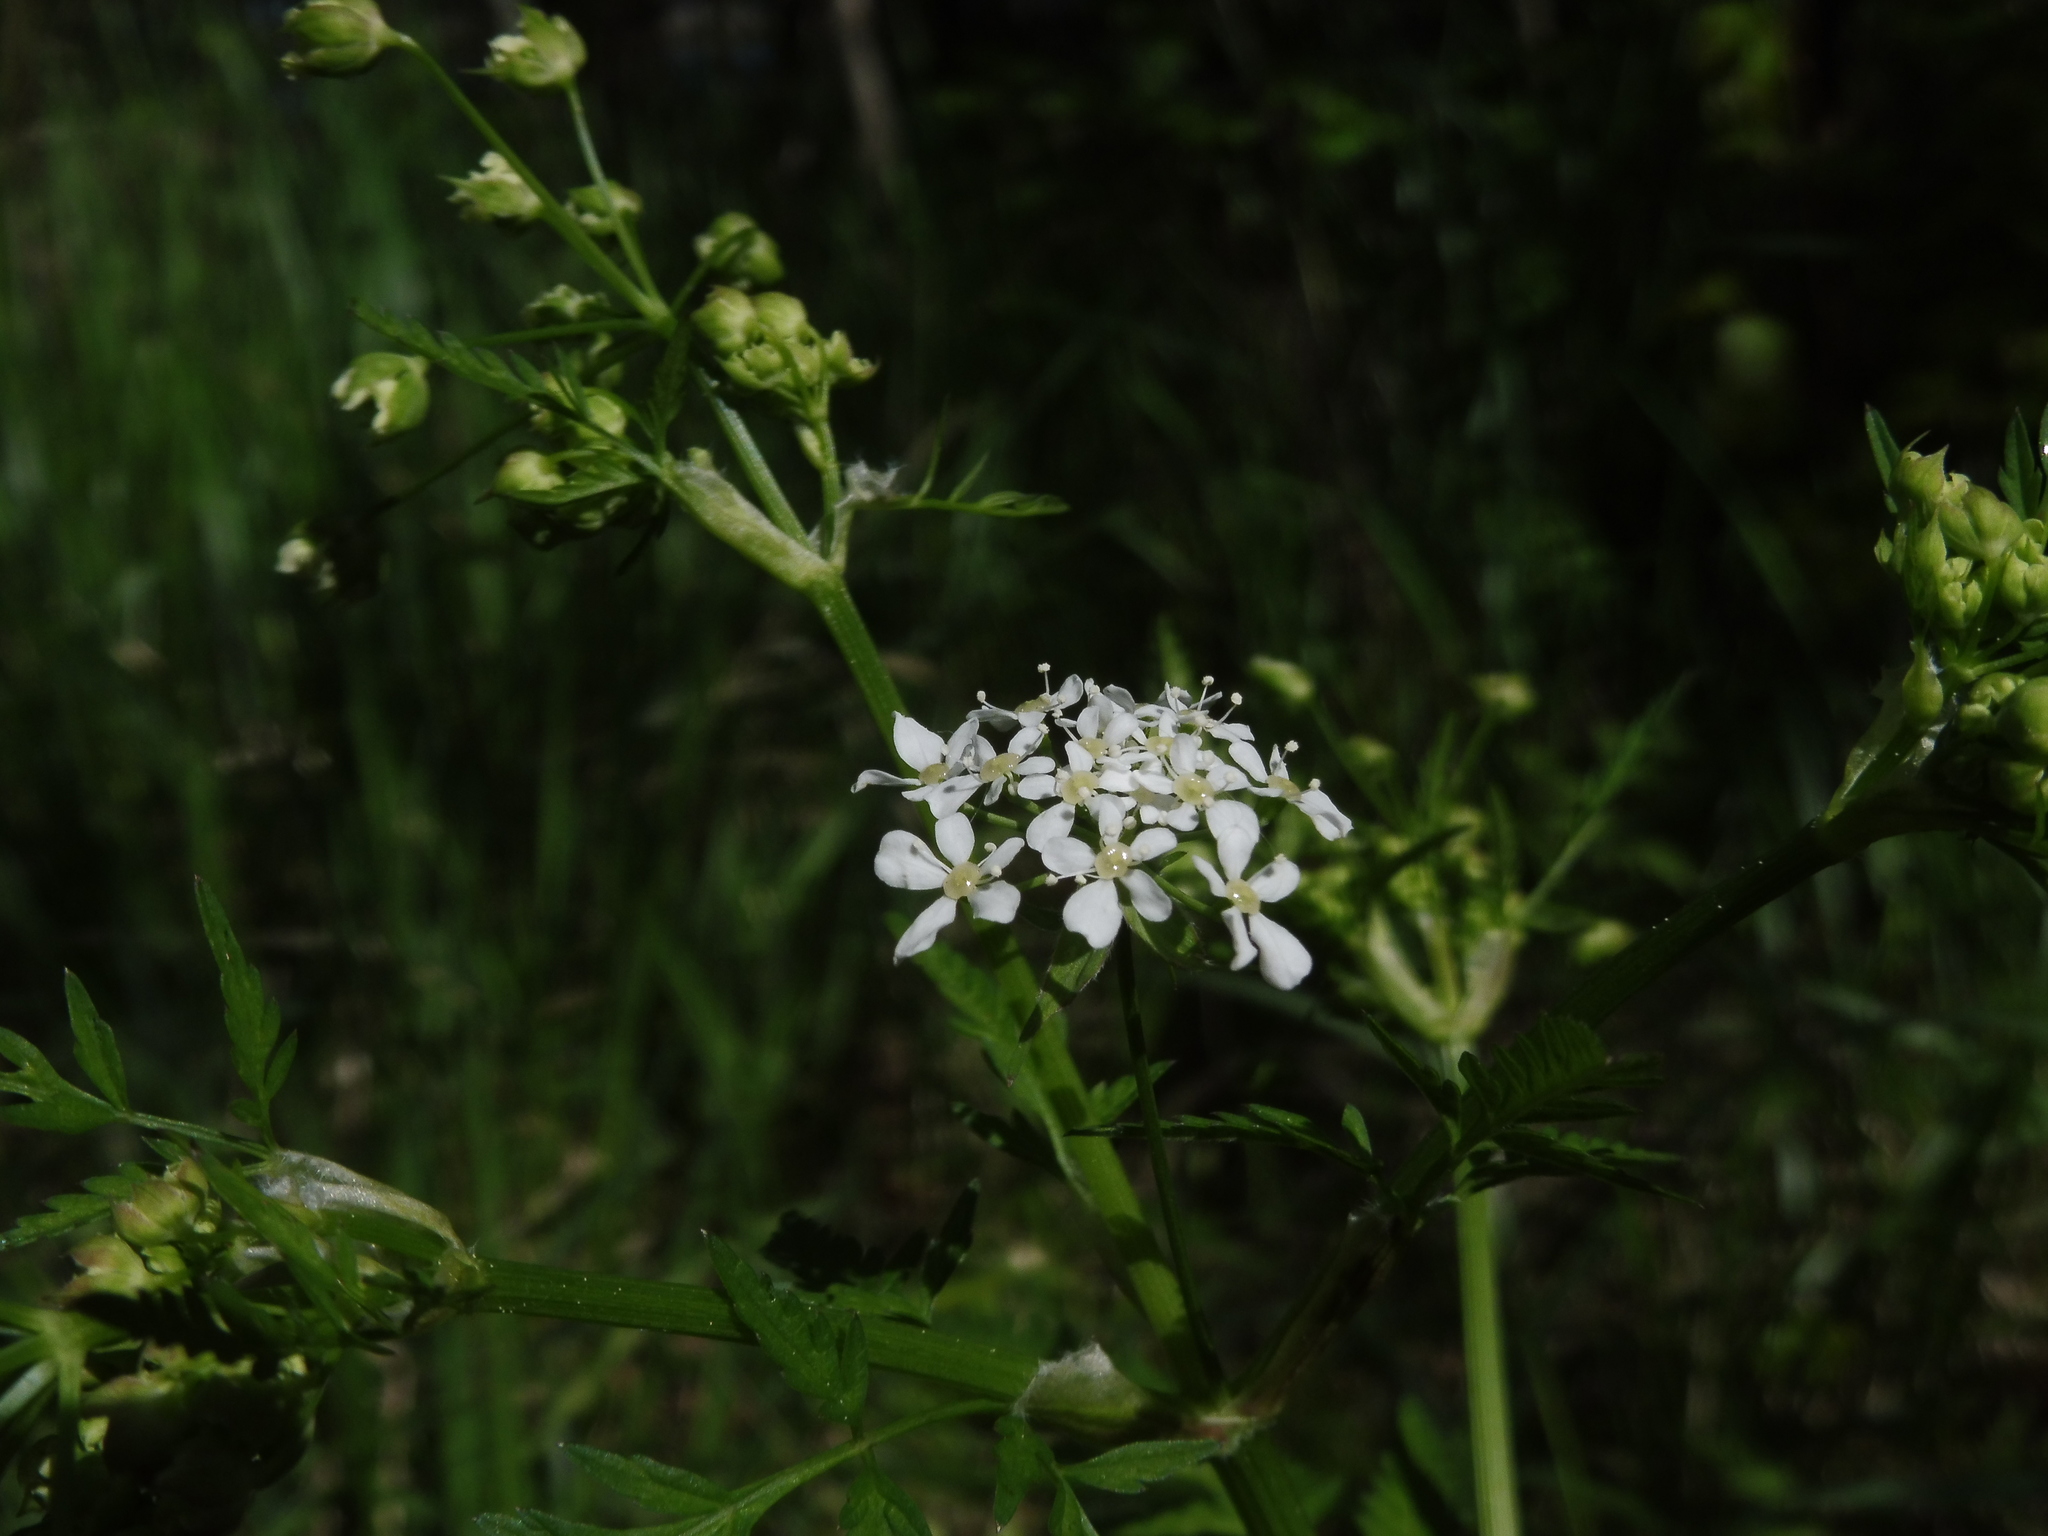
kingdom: Plantae
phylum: Tracheophyta
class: Magnoliopsida
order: Apiales
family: Apiaceae
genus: Anthriscus
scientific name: Anthriscus sylvestris
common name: Cow parsley
